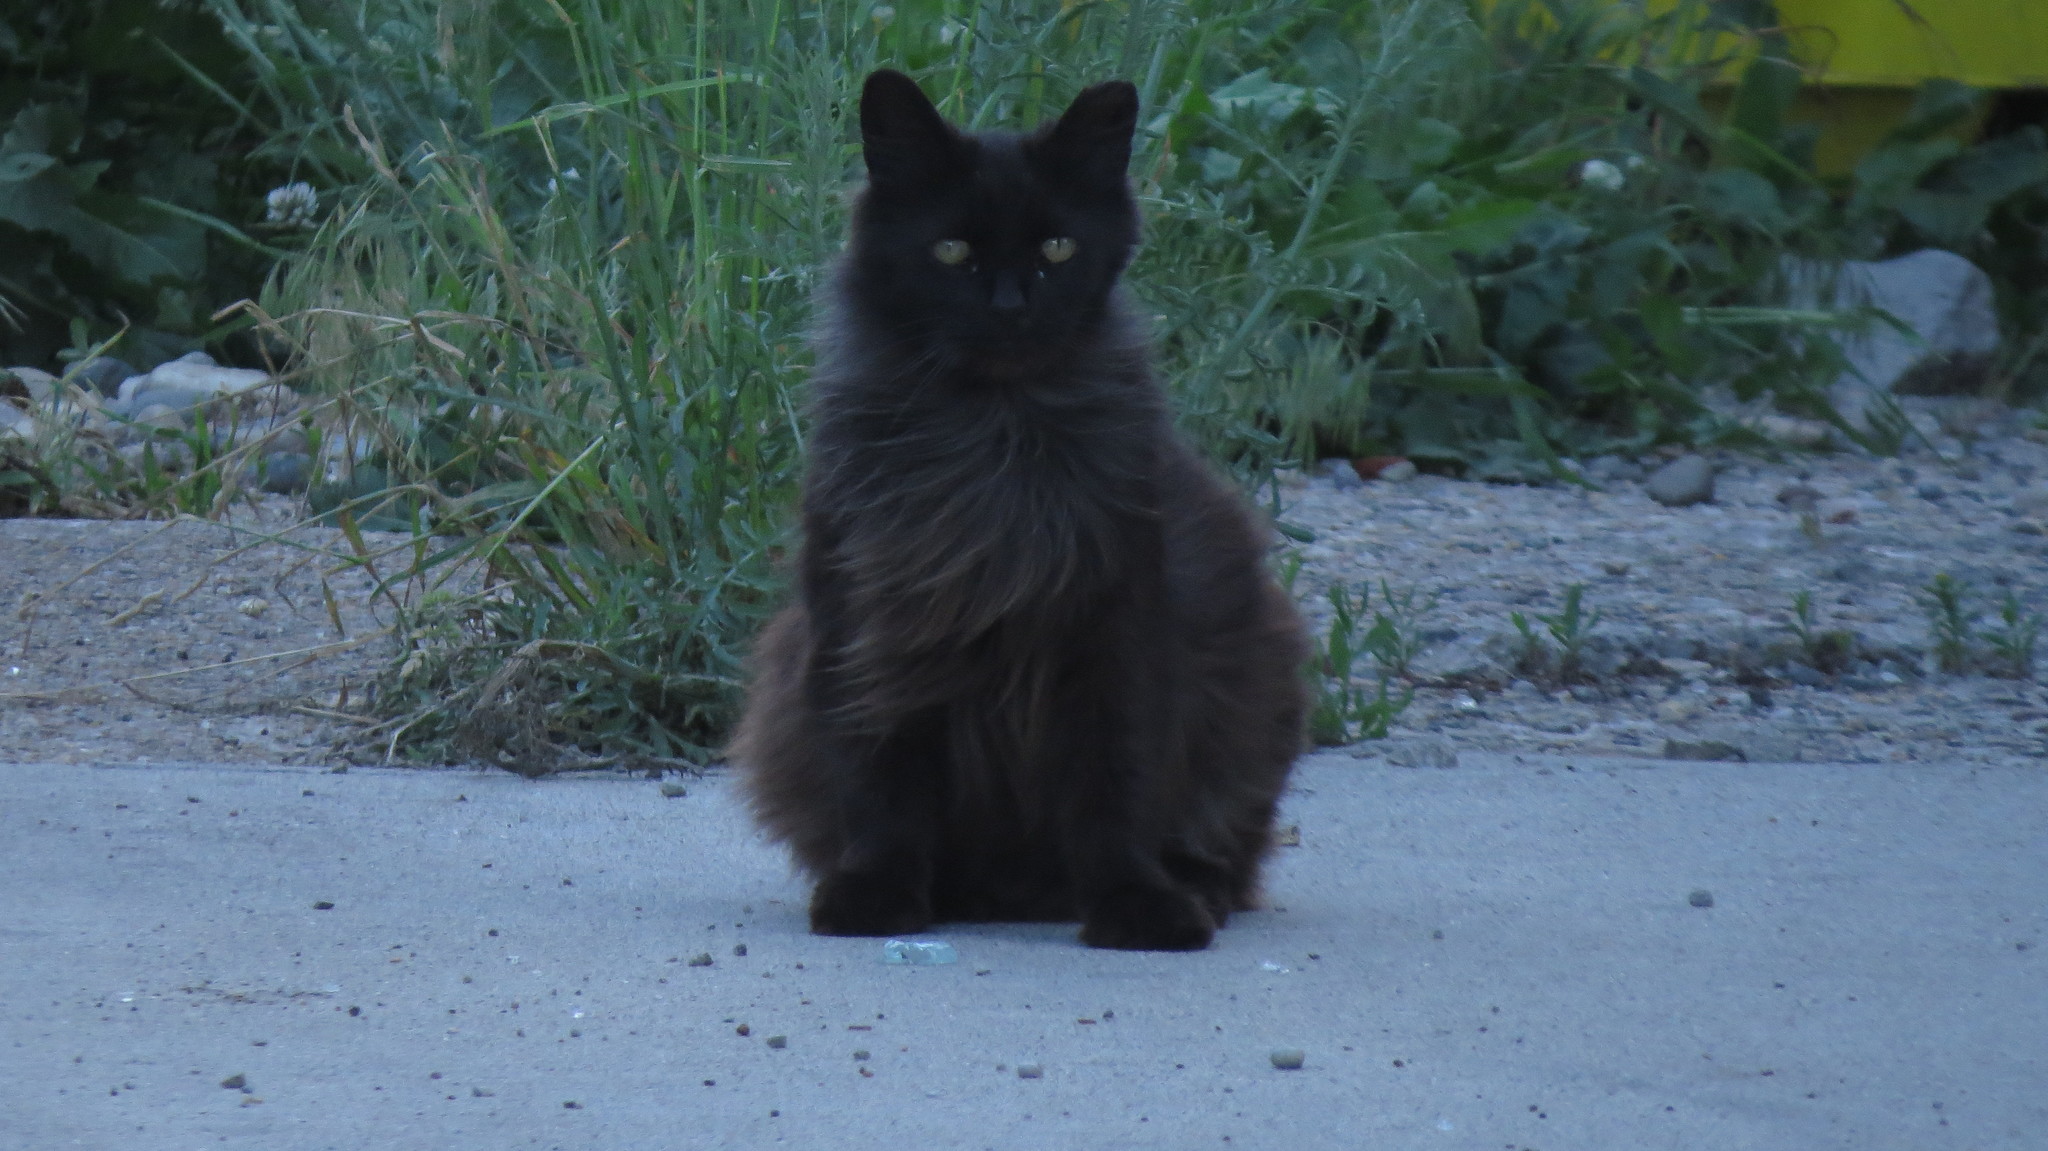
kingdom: Animalia
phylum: Chordata
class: Mammalia
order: Carnivora
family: Felidae
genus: Felis
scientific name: Felis catus
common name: Domestic cat
